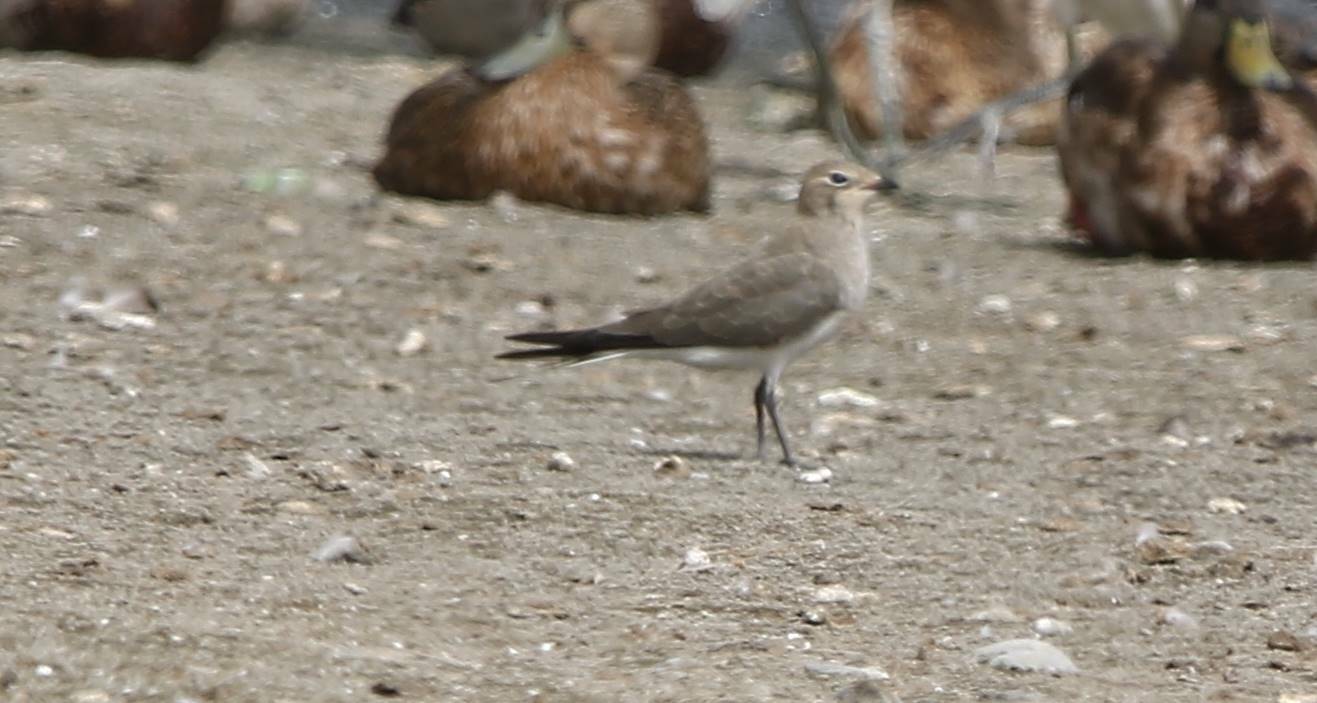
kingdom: Animalia
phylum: Chordata
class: Aves
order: Charadriiformes
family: Glareolidae
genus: Glareola
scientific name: Glareola pratincola
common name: Collared pratincole
